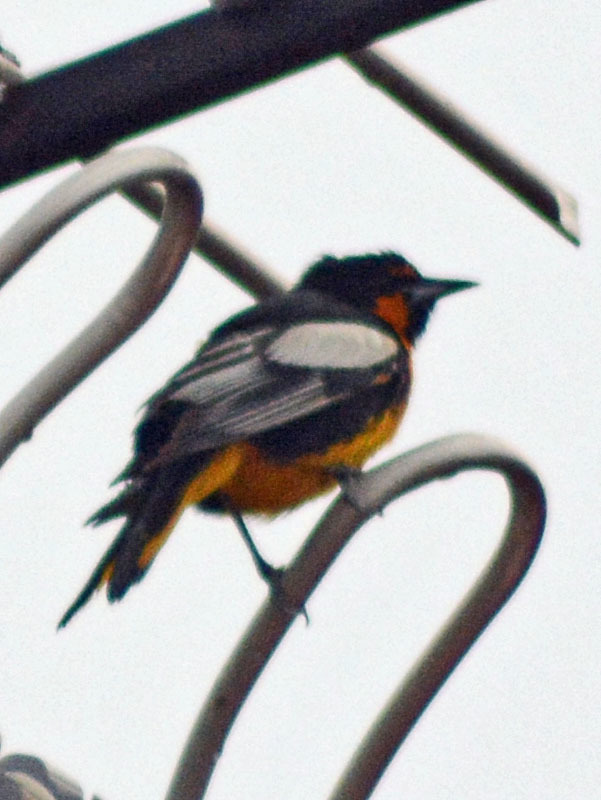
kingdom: Animalia
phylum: Chordata
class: Aves
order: Passeriformes
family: Icteridae
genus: Icterus
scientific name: Icterus abeillei
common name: Black-backed oriole
